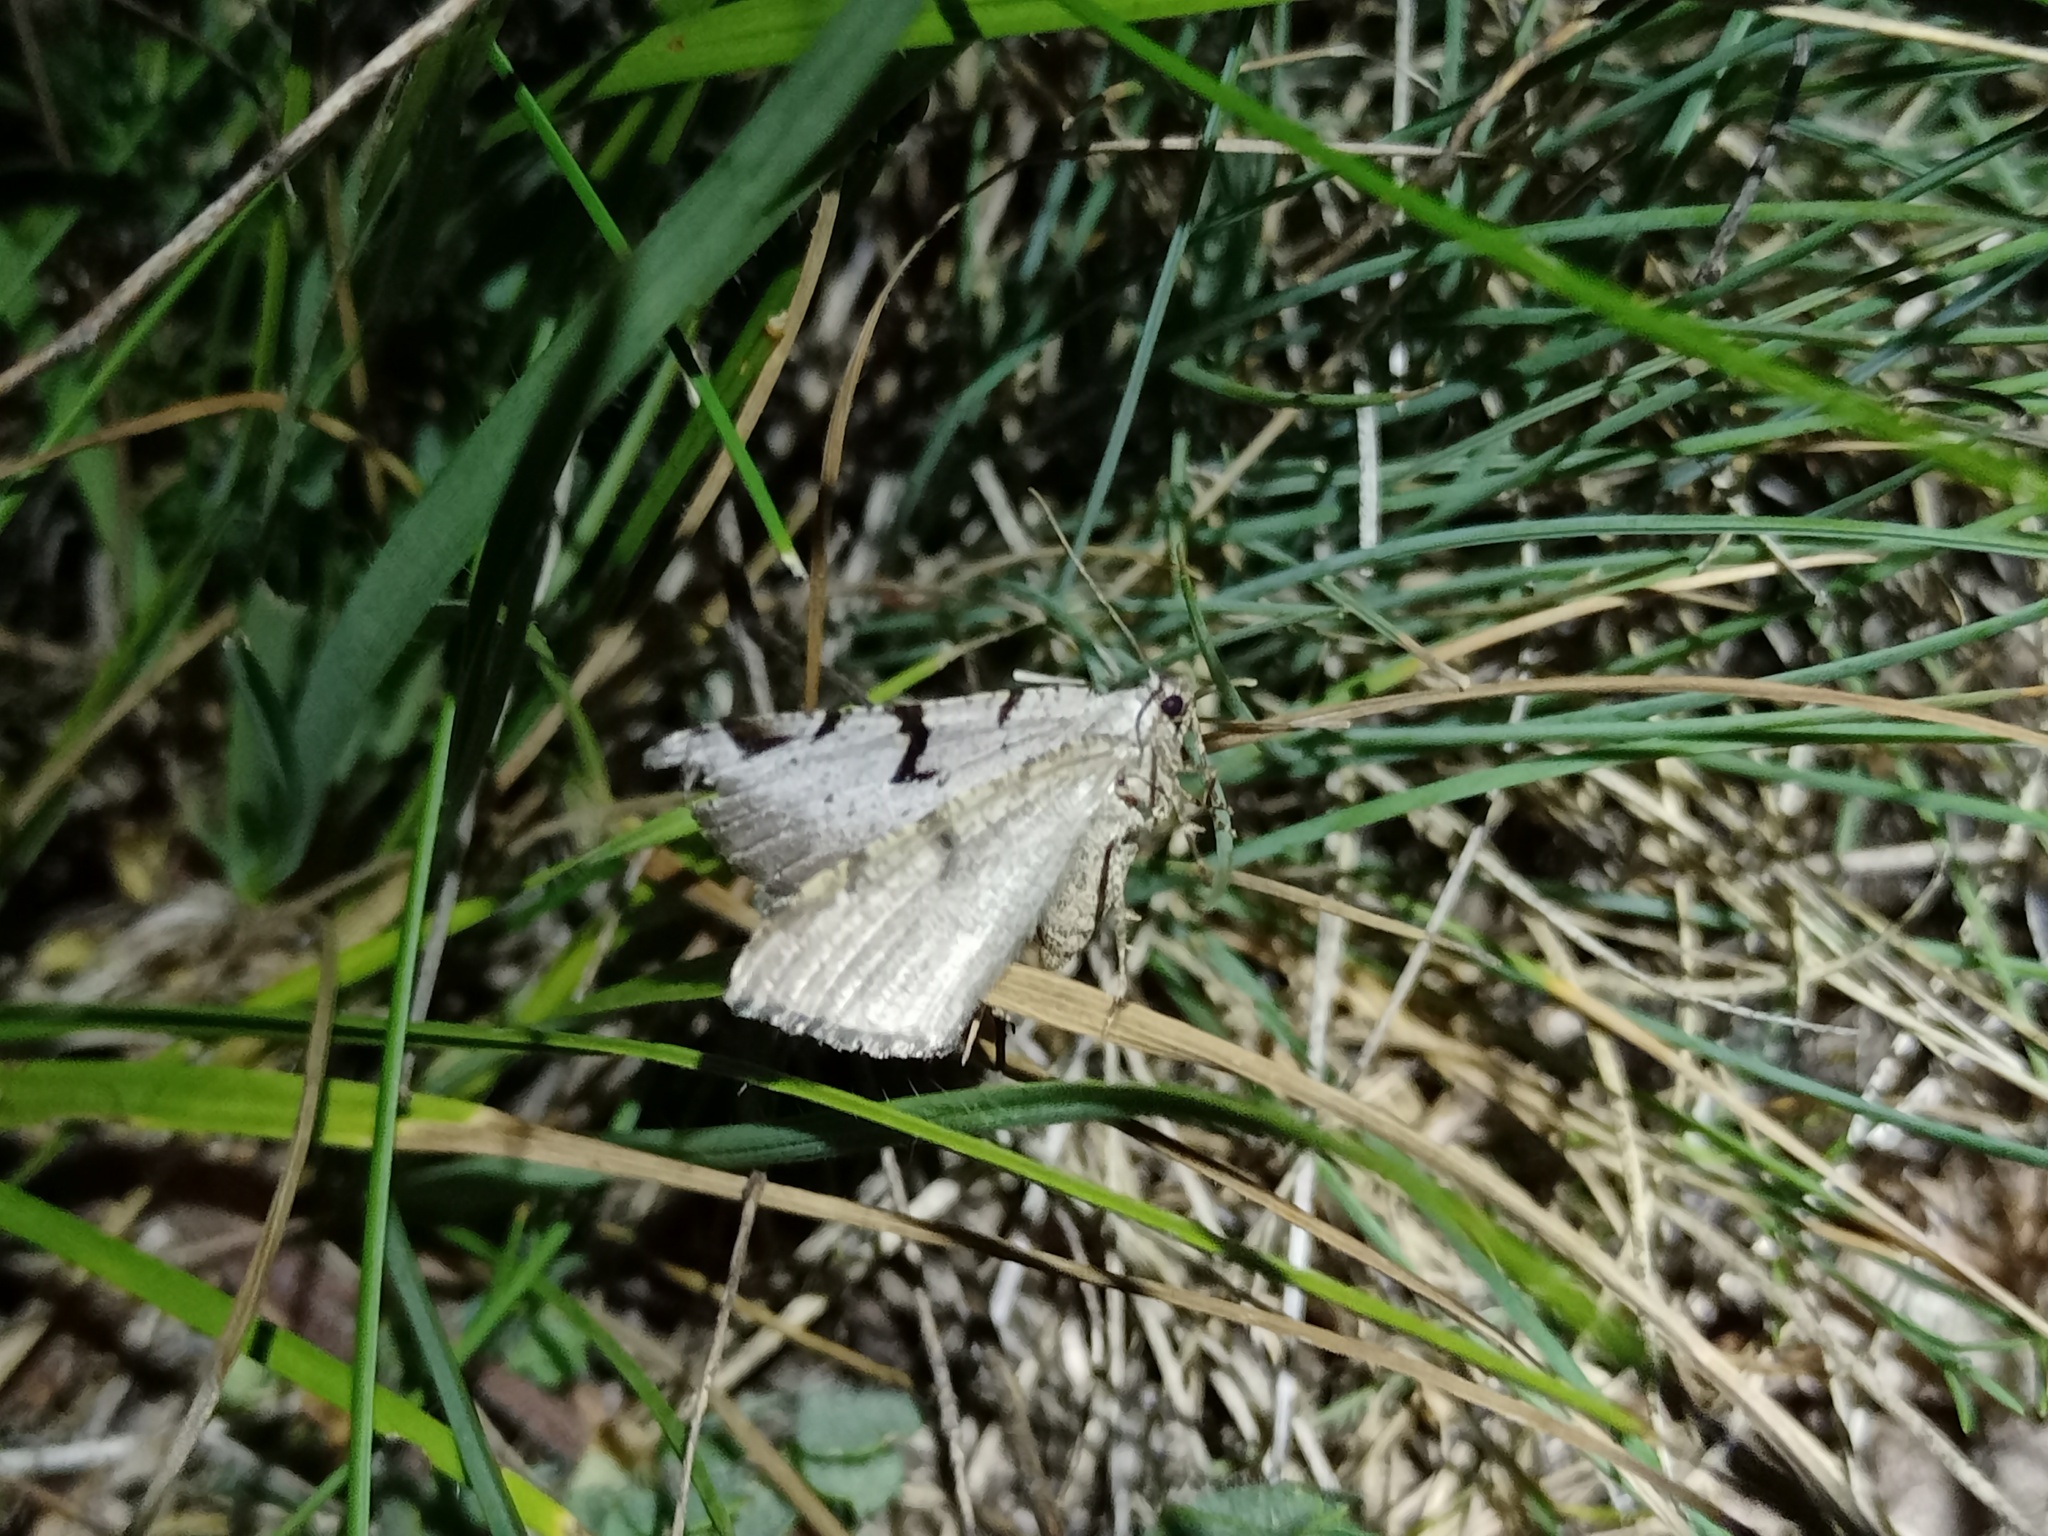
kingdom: Animalia
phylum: Arthropoda
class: Insecta
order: Lepidoptera
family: Geometridae
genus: Macaria
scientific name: Macaria wauaria
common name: V-moth
